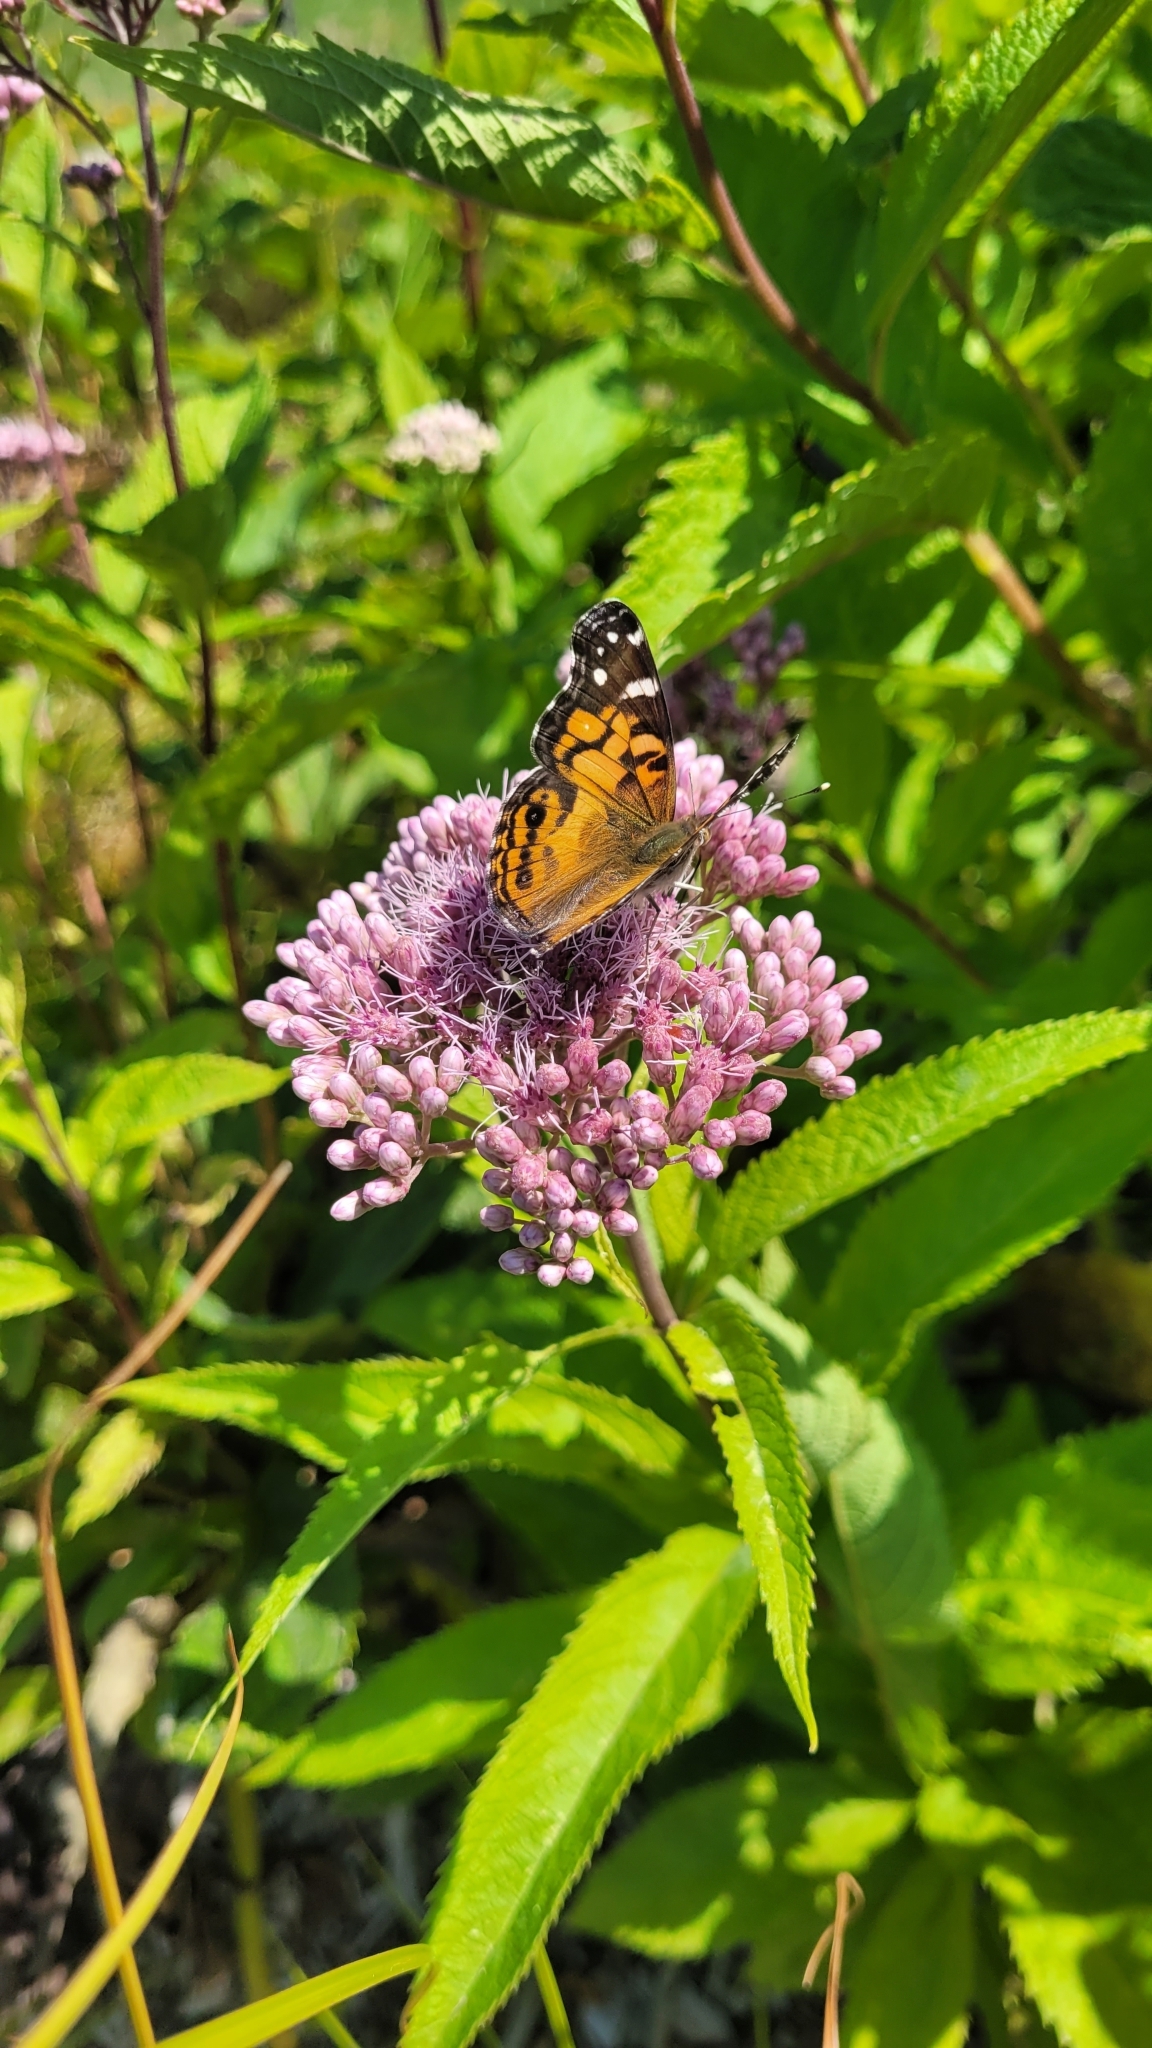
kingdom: Animalia
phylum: Arthropoda
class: Insecta
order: Lepidoptera
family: Nymphalidae
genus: Vanessa
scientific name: Vanessa virginiensis
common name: American lady
